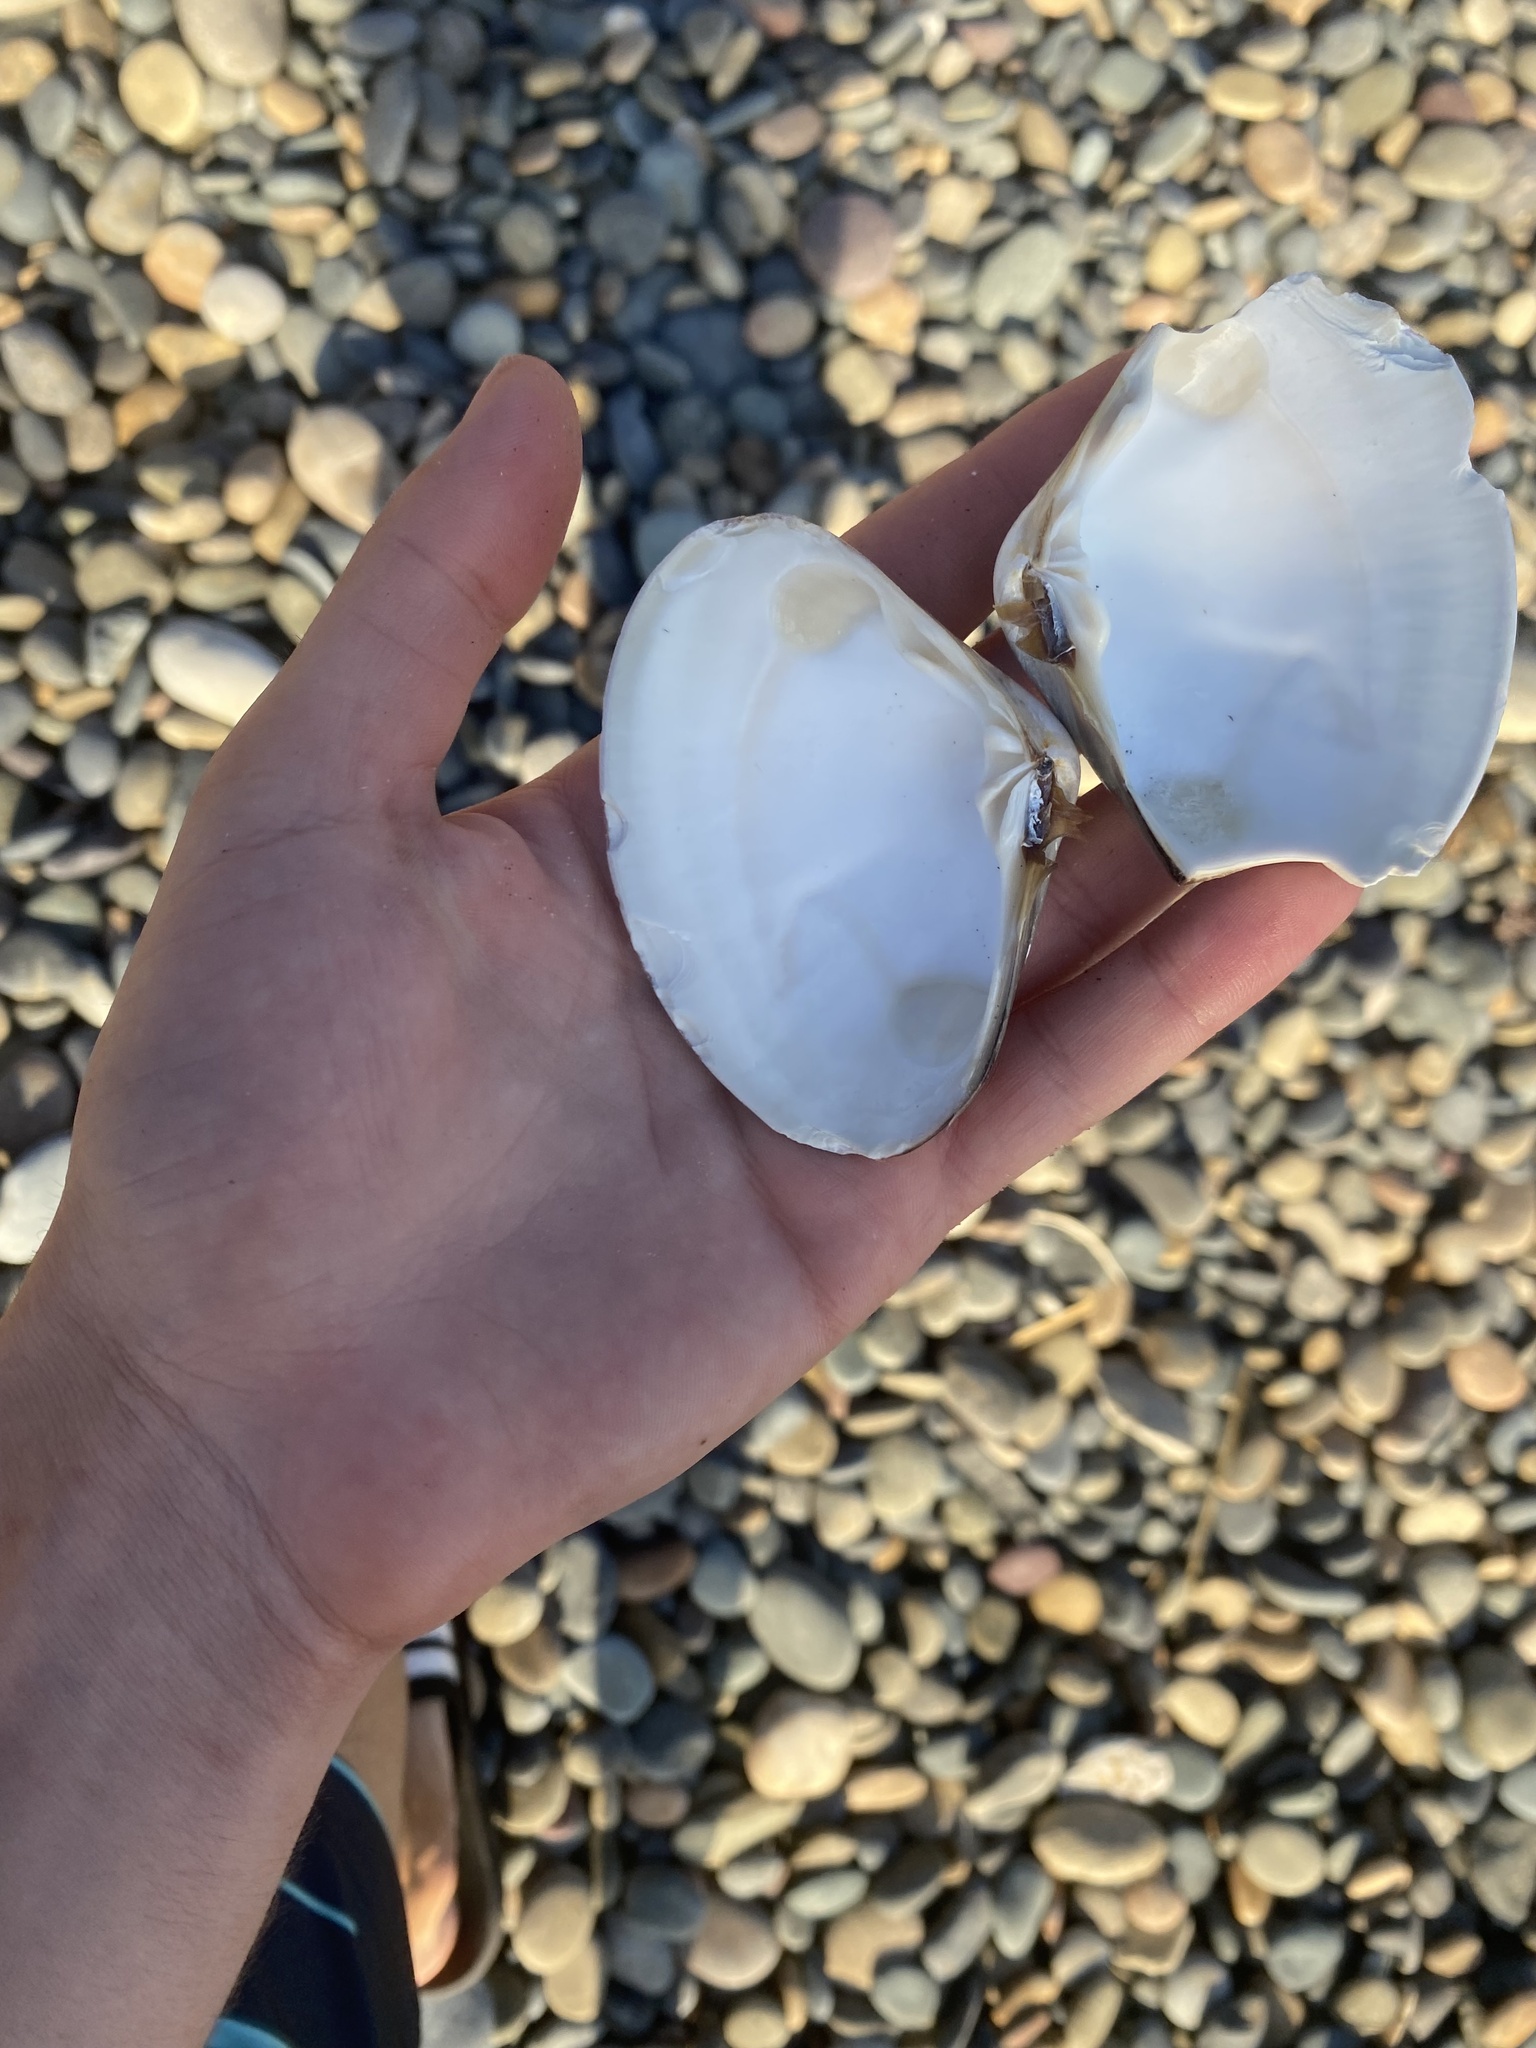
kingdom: Animalia
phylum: Mollusca
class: Bivalvia
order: Venerida
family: Veneridae
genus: Tivela
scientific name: Tivela stultorum
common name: Pismo clam
